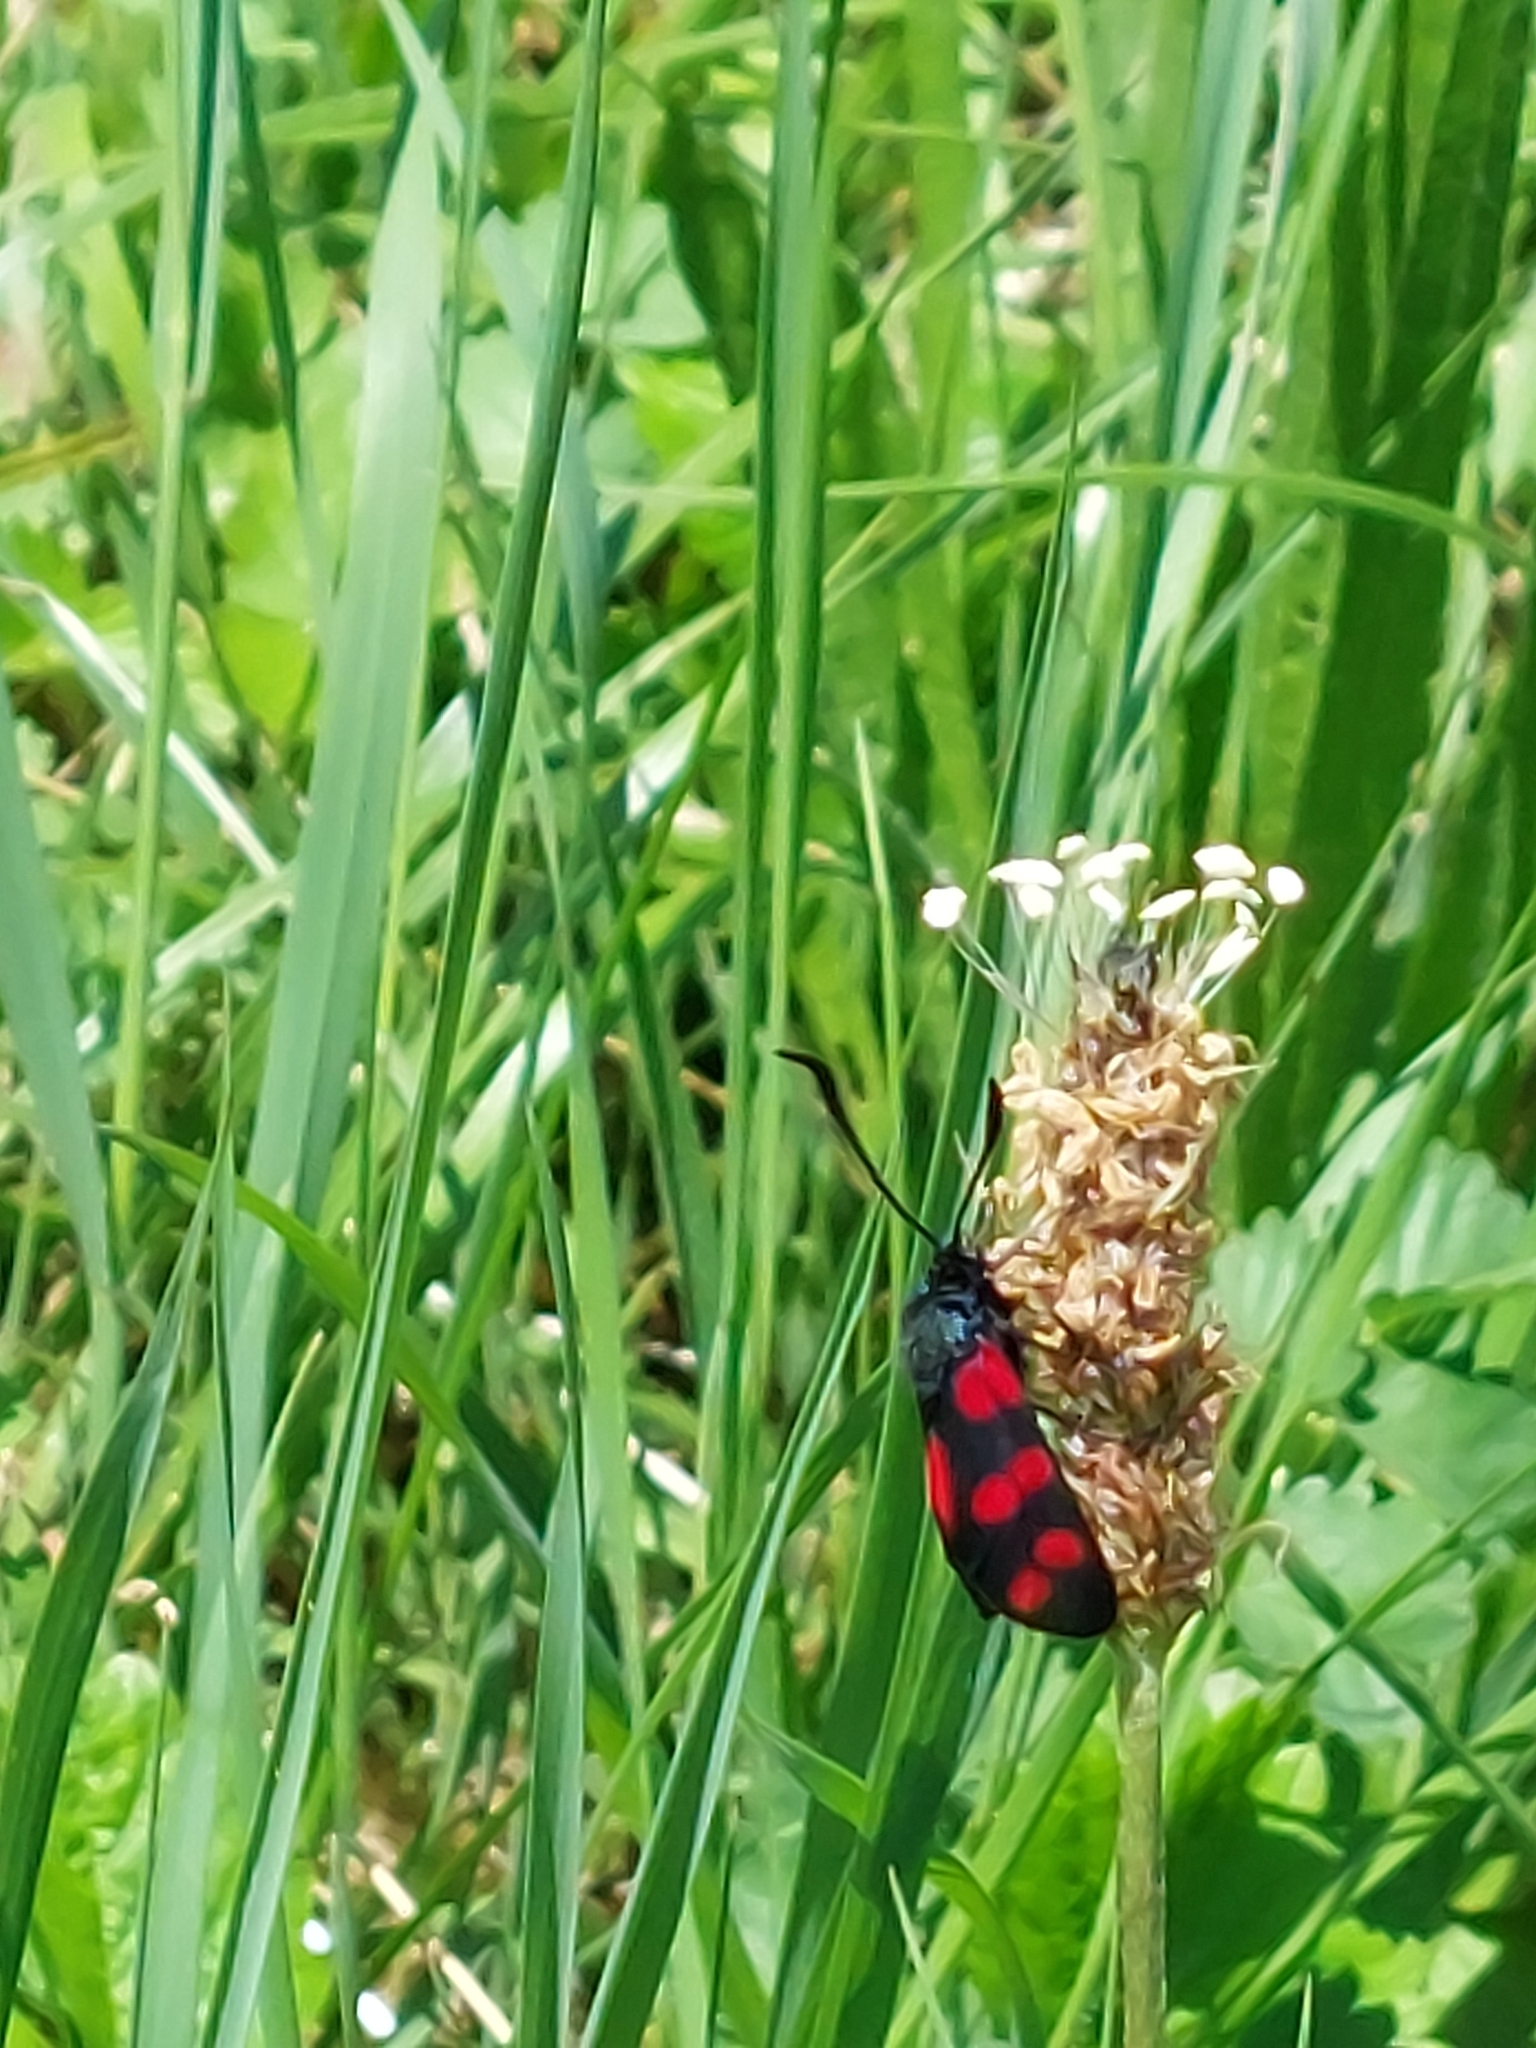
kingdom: Animalia
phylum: Arthropoda
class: Insecta
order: Lepidoptera
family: Zygaenidae
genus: Zygaena
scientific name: Zygaena filipendulae
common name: Six-spot burnet
